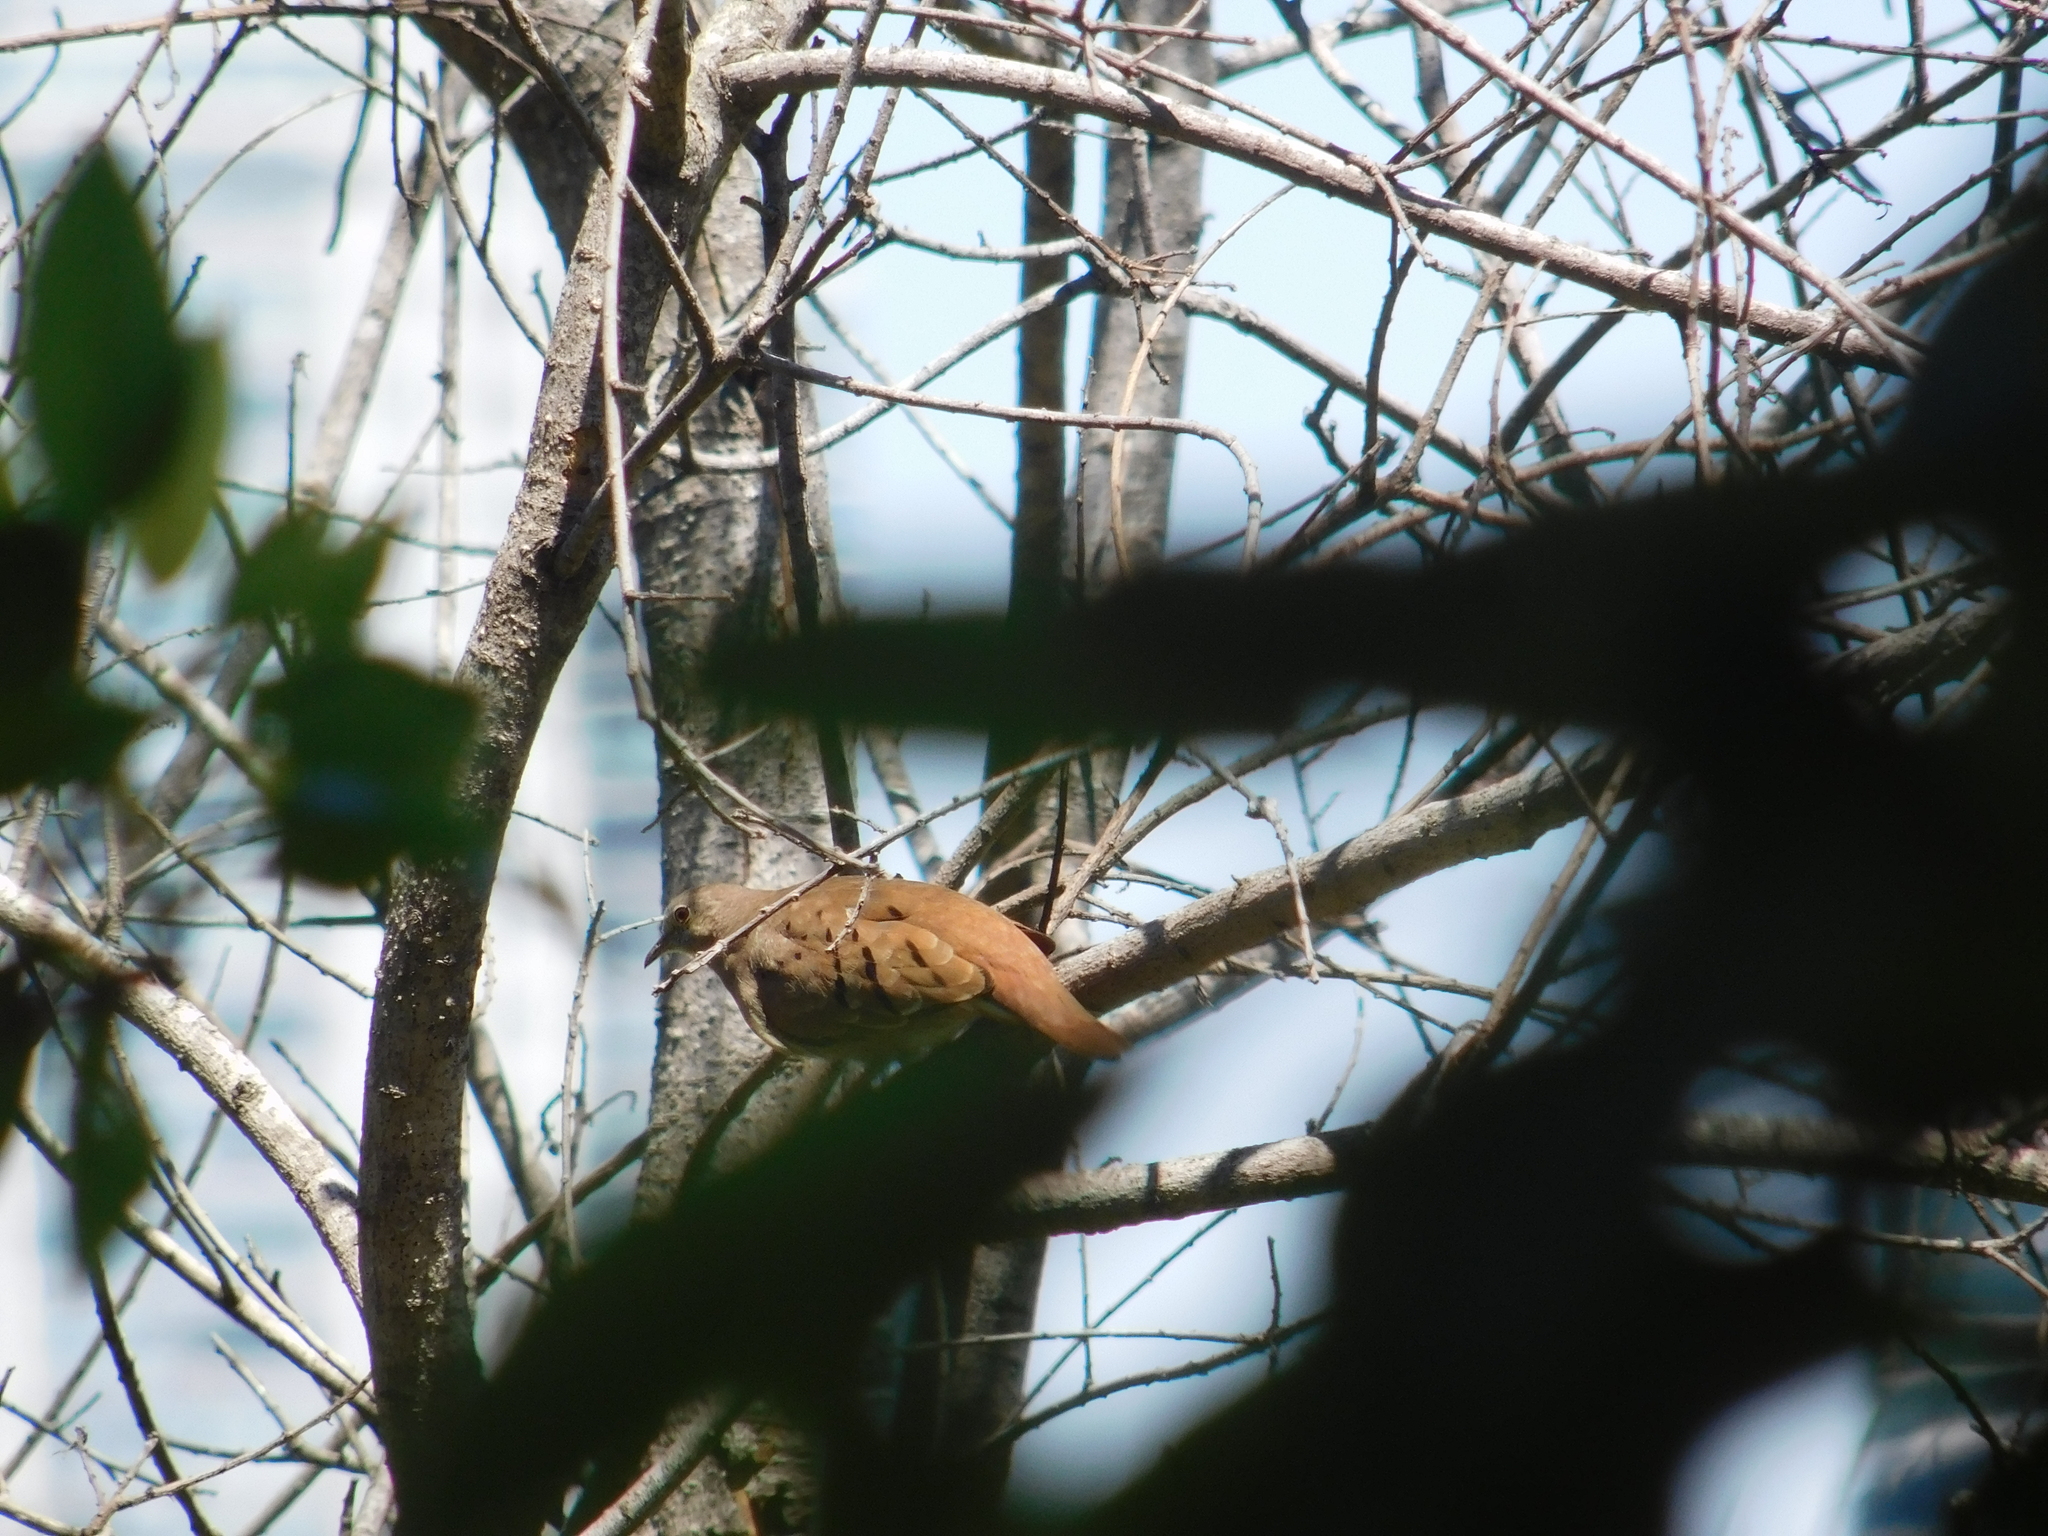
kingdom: Animalia
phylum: Chordata
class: Aves
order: Columbiformes
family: Columbidae
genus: Columbina
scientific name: Columbina talpacoti
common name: Ruddy ground dove
